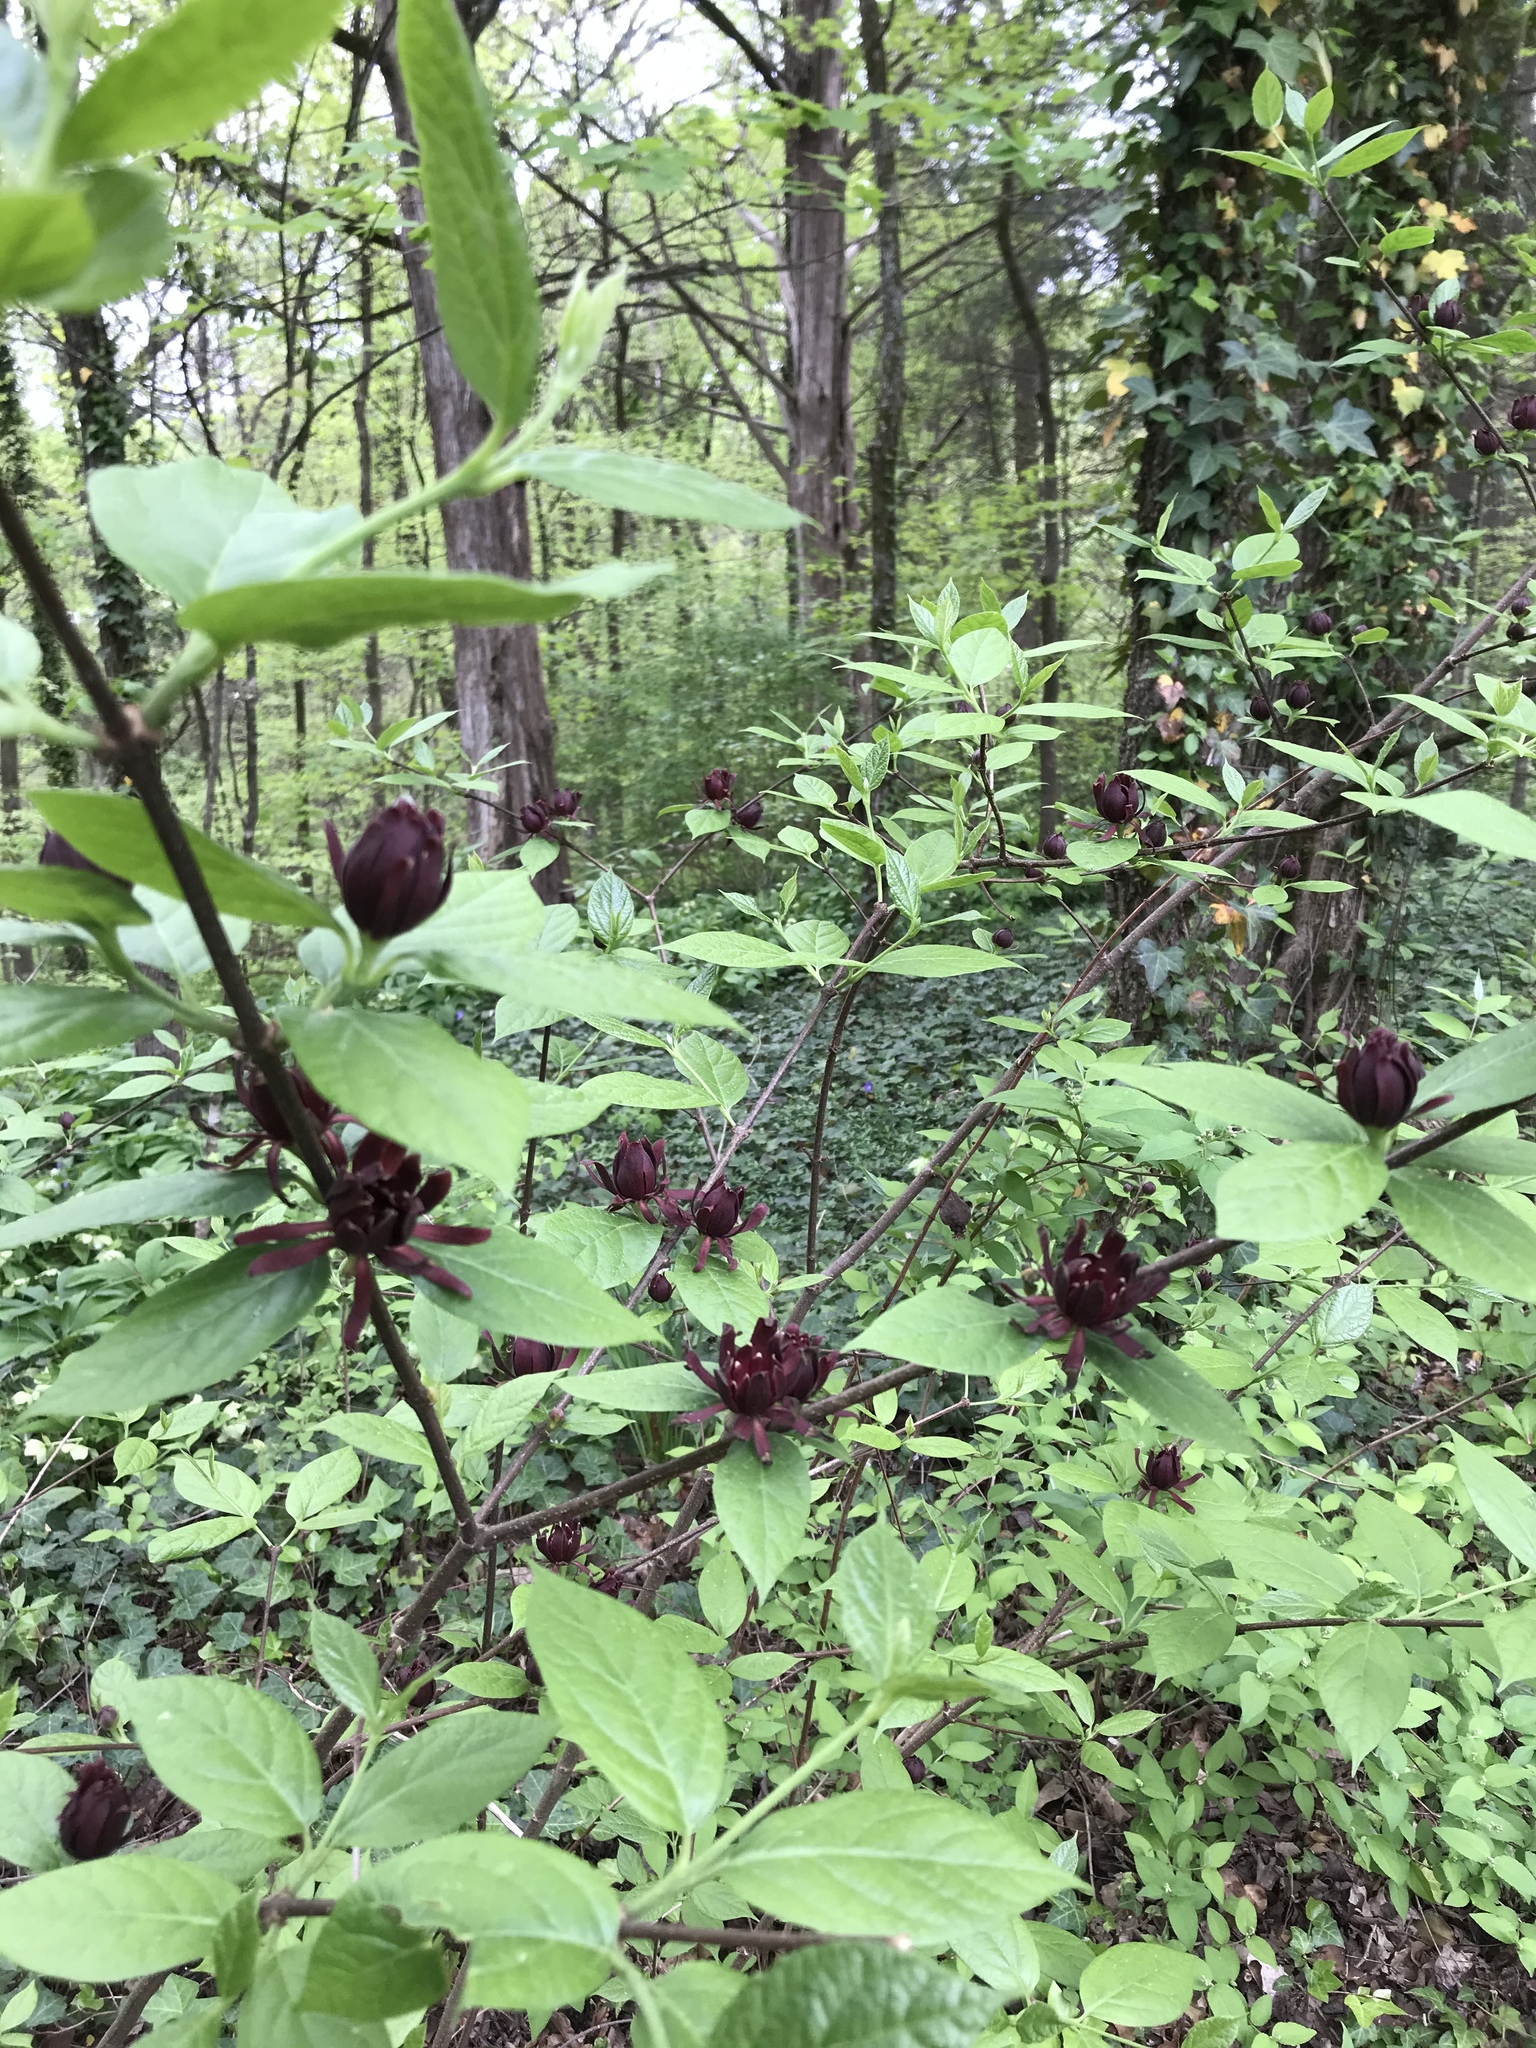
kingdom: Plantae
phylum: Tracheophyta
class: Magnoliopsida
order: Laurales
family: Calycanthaceae
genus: Calycanthus
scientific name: Calycanthus floridus
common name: Carolina-allspice
